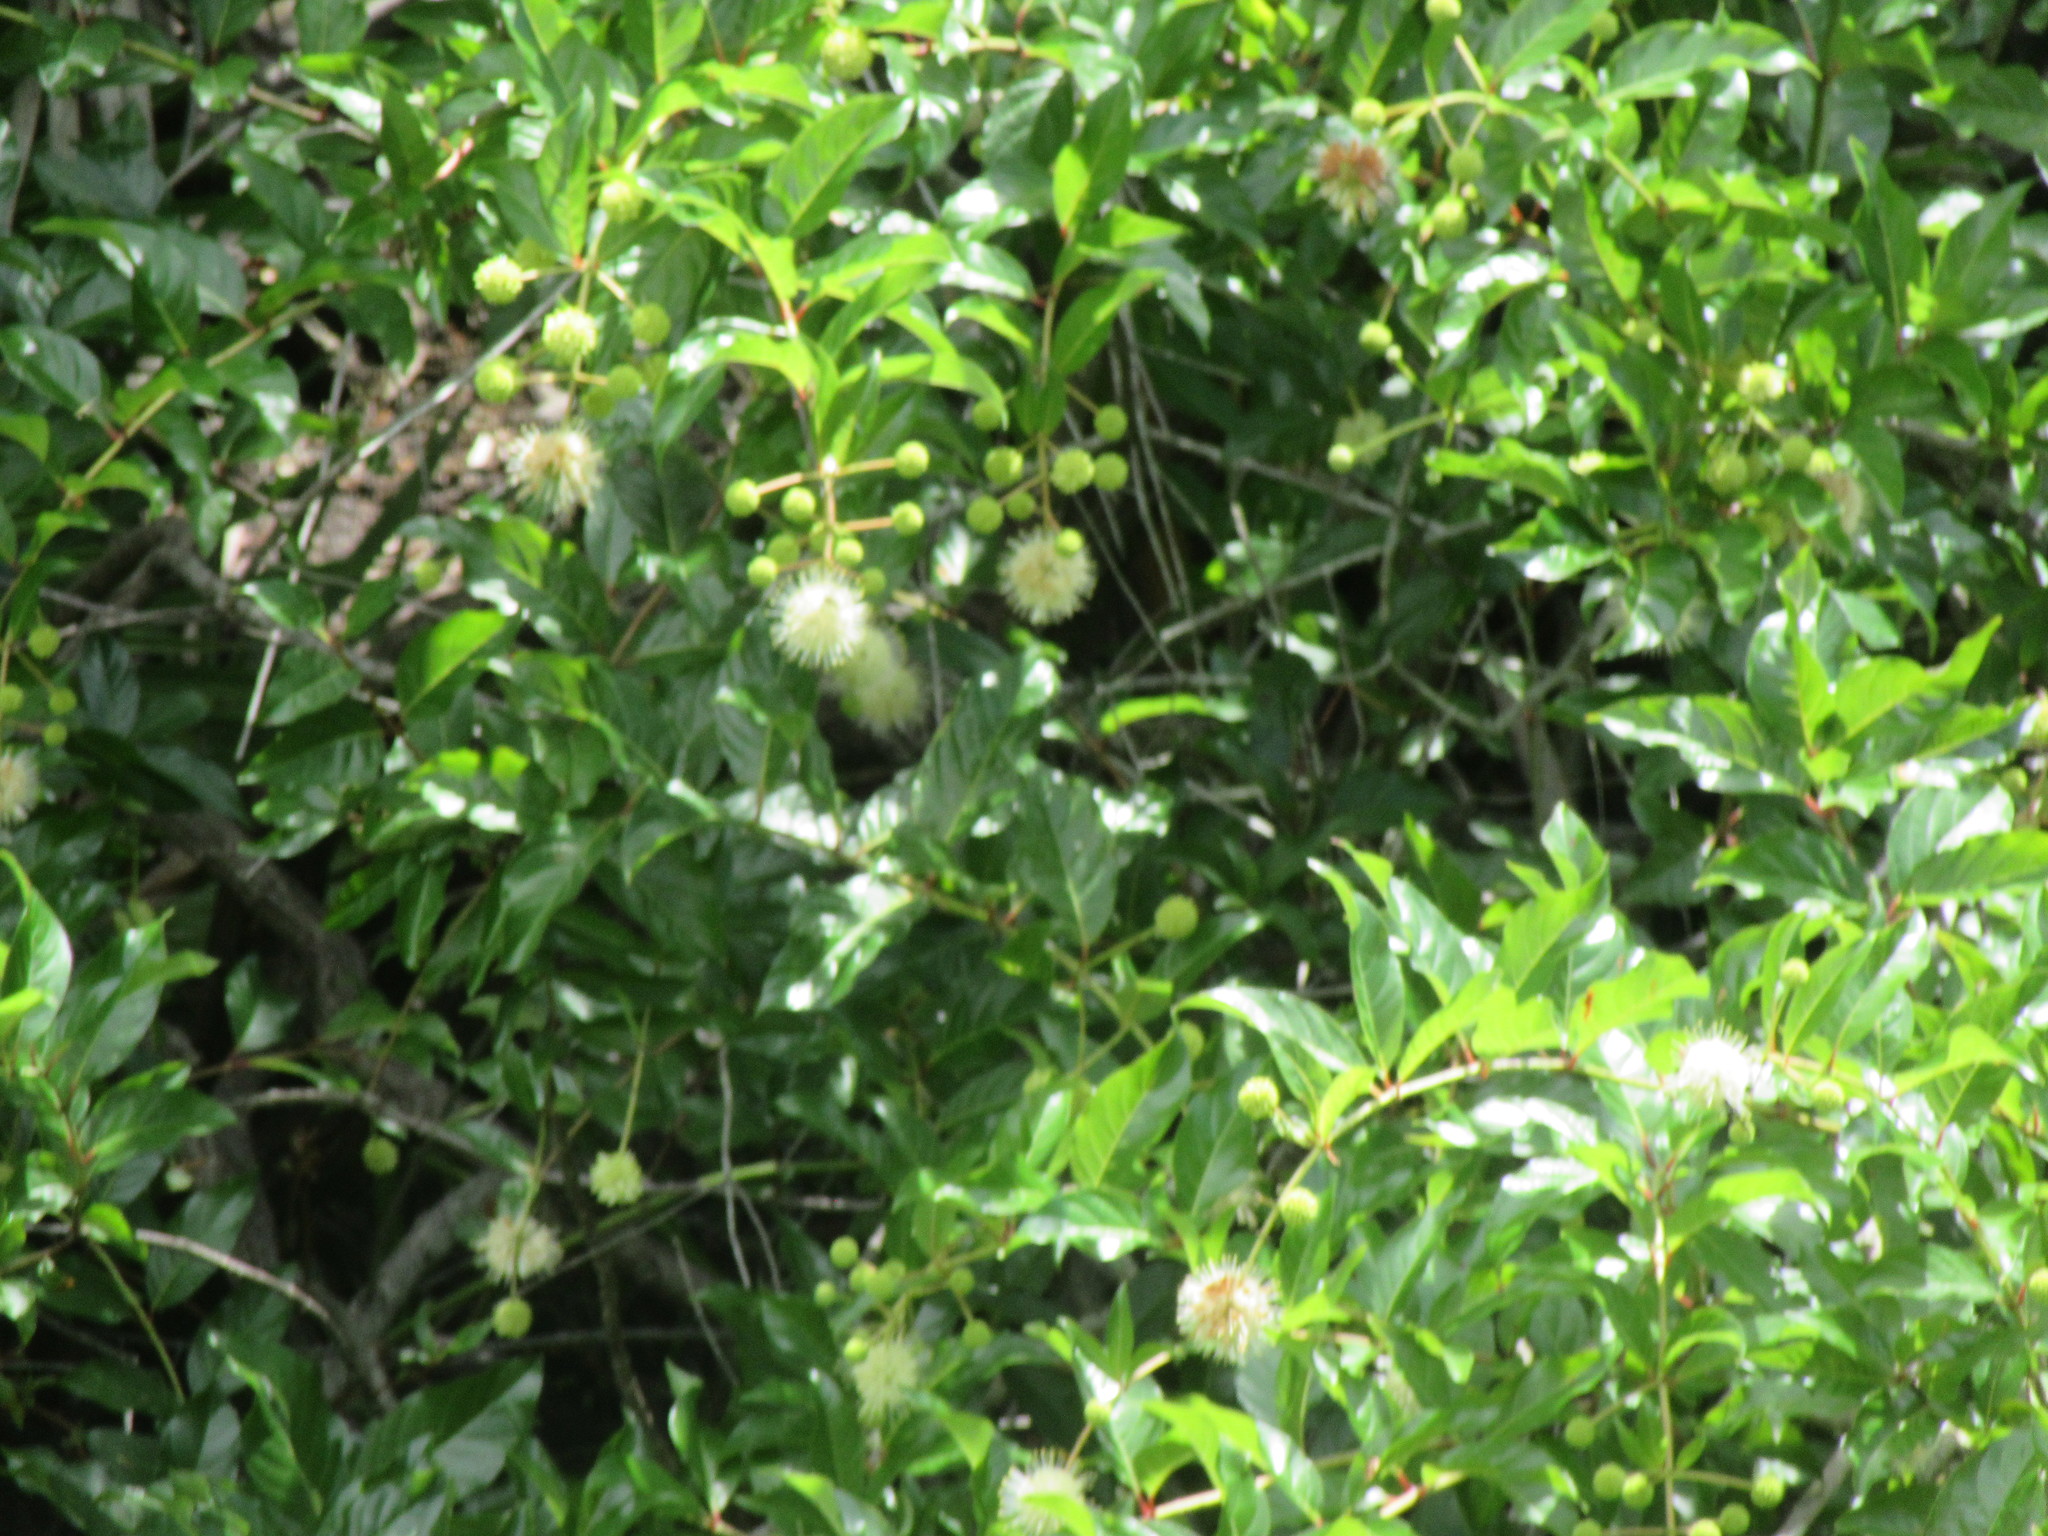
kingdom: Plantae
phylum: Tracheophyta
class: Magnoliopsida
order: Gentianales
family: Rubiaceae
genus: Cephalanthus
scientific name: Cephalanthus occidentalis
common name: Button-willow
